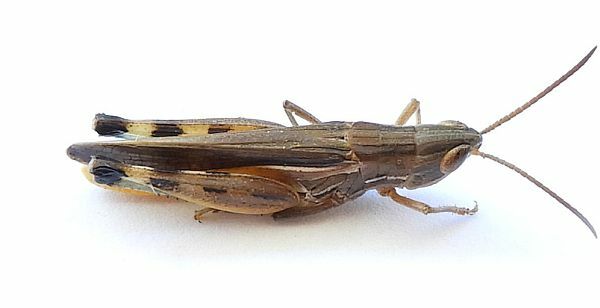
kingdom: Animalia
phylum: Arthropoda
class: Insecta
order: Orthoptera
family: Acrididae
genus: Amphitornus
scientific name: Amphitornus coloradus
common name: Striped grasshopper
